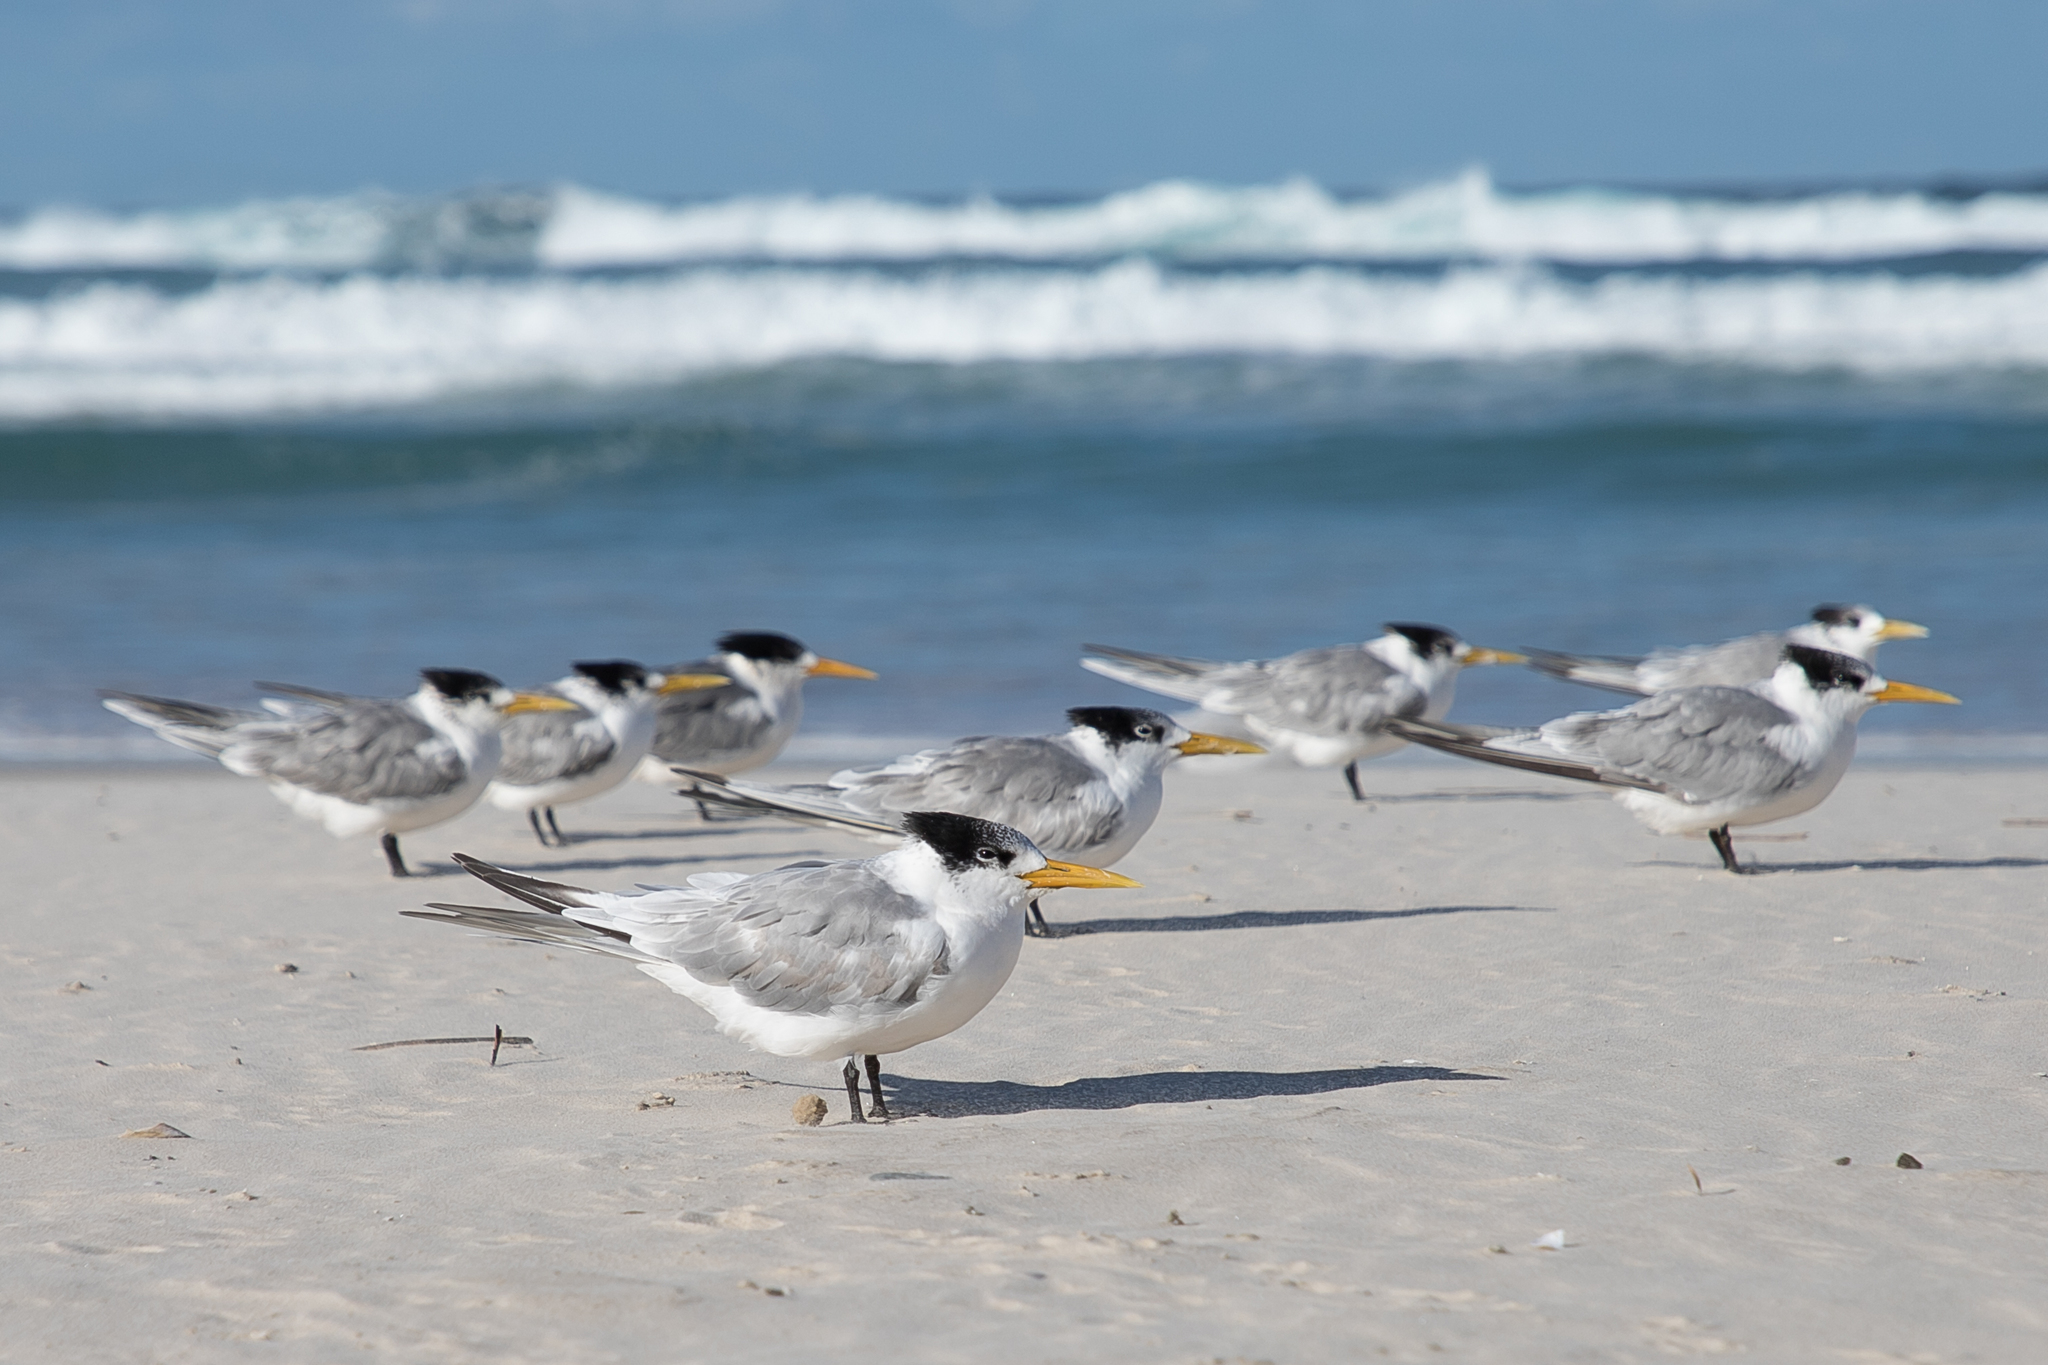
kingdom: Animalia
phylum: Chordata
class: Aves
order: Charadriiformes
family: Laridae
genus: Thalasseus
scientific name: Thalasseus bergii
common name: Greater crested tern
